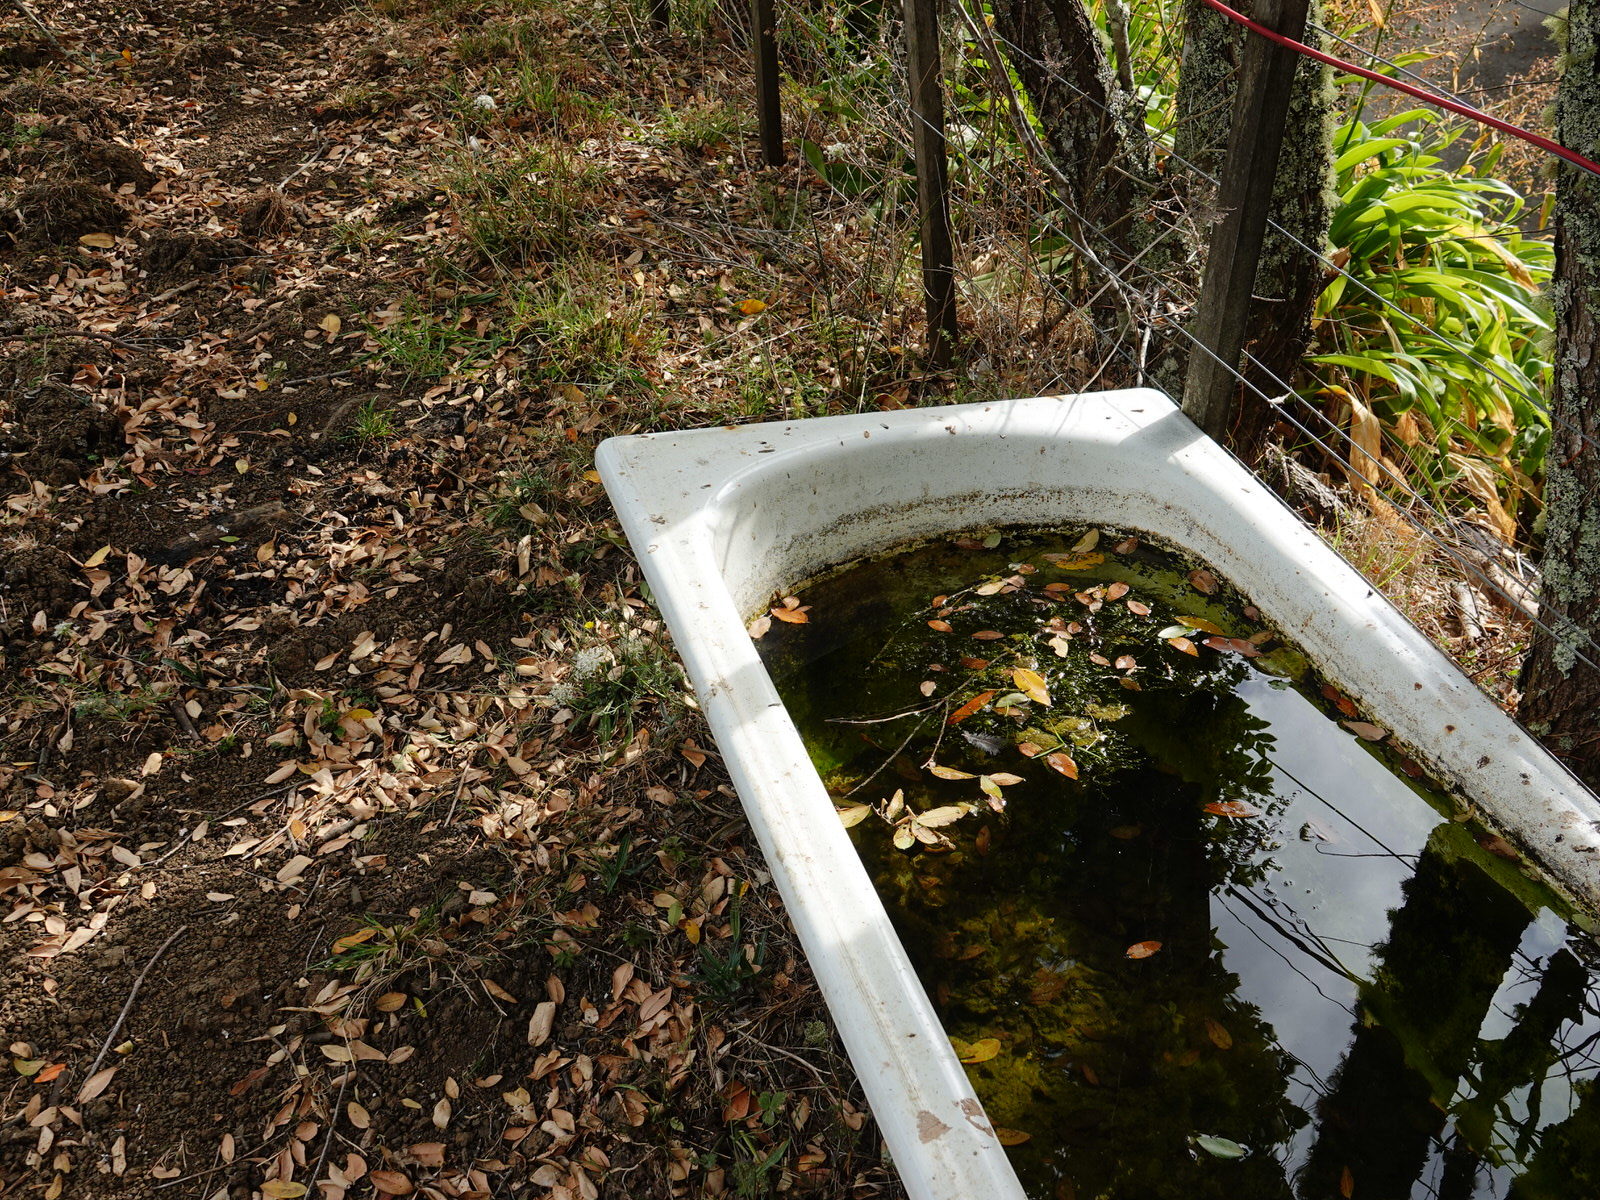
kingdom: Animalia
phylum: Arthropoda
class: Insecta
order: Hymenoptera
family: Vespidae
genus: Vespula
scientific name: Vespula germanica
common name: German wasp
